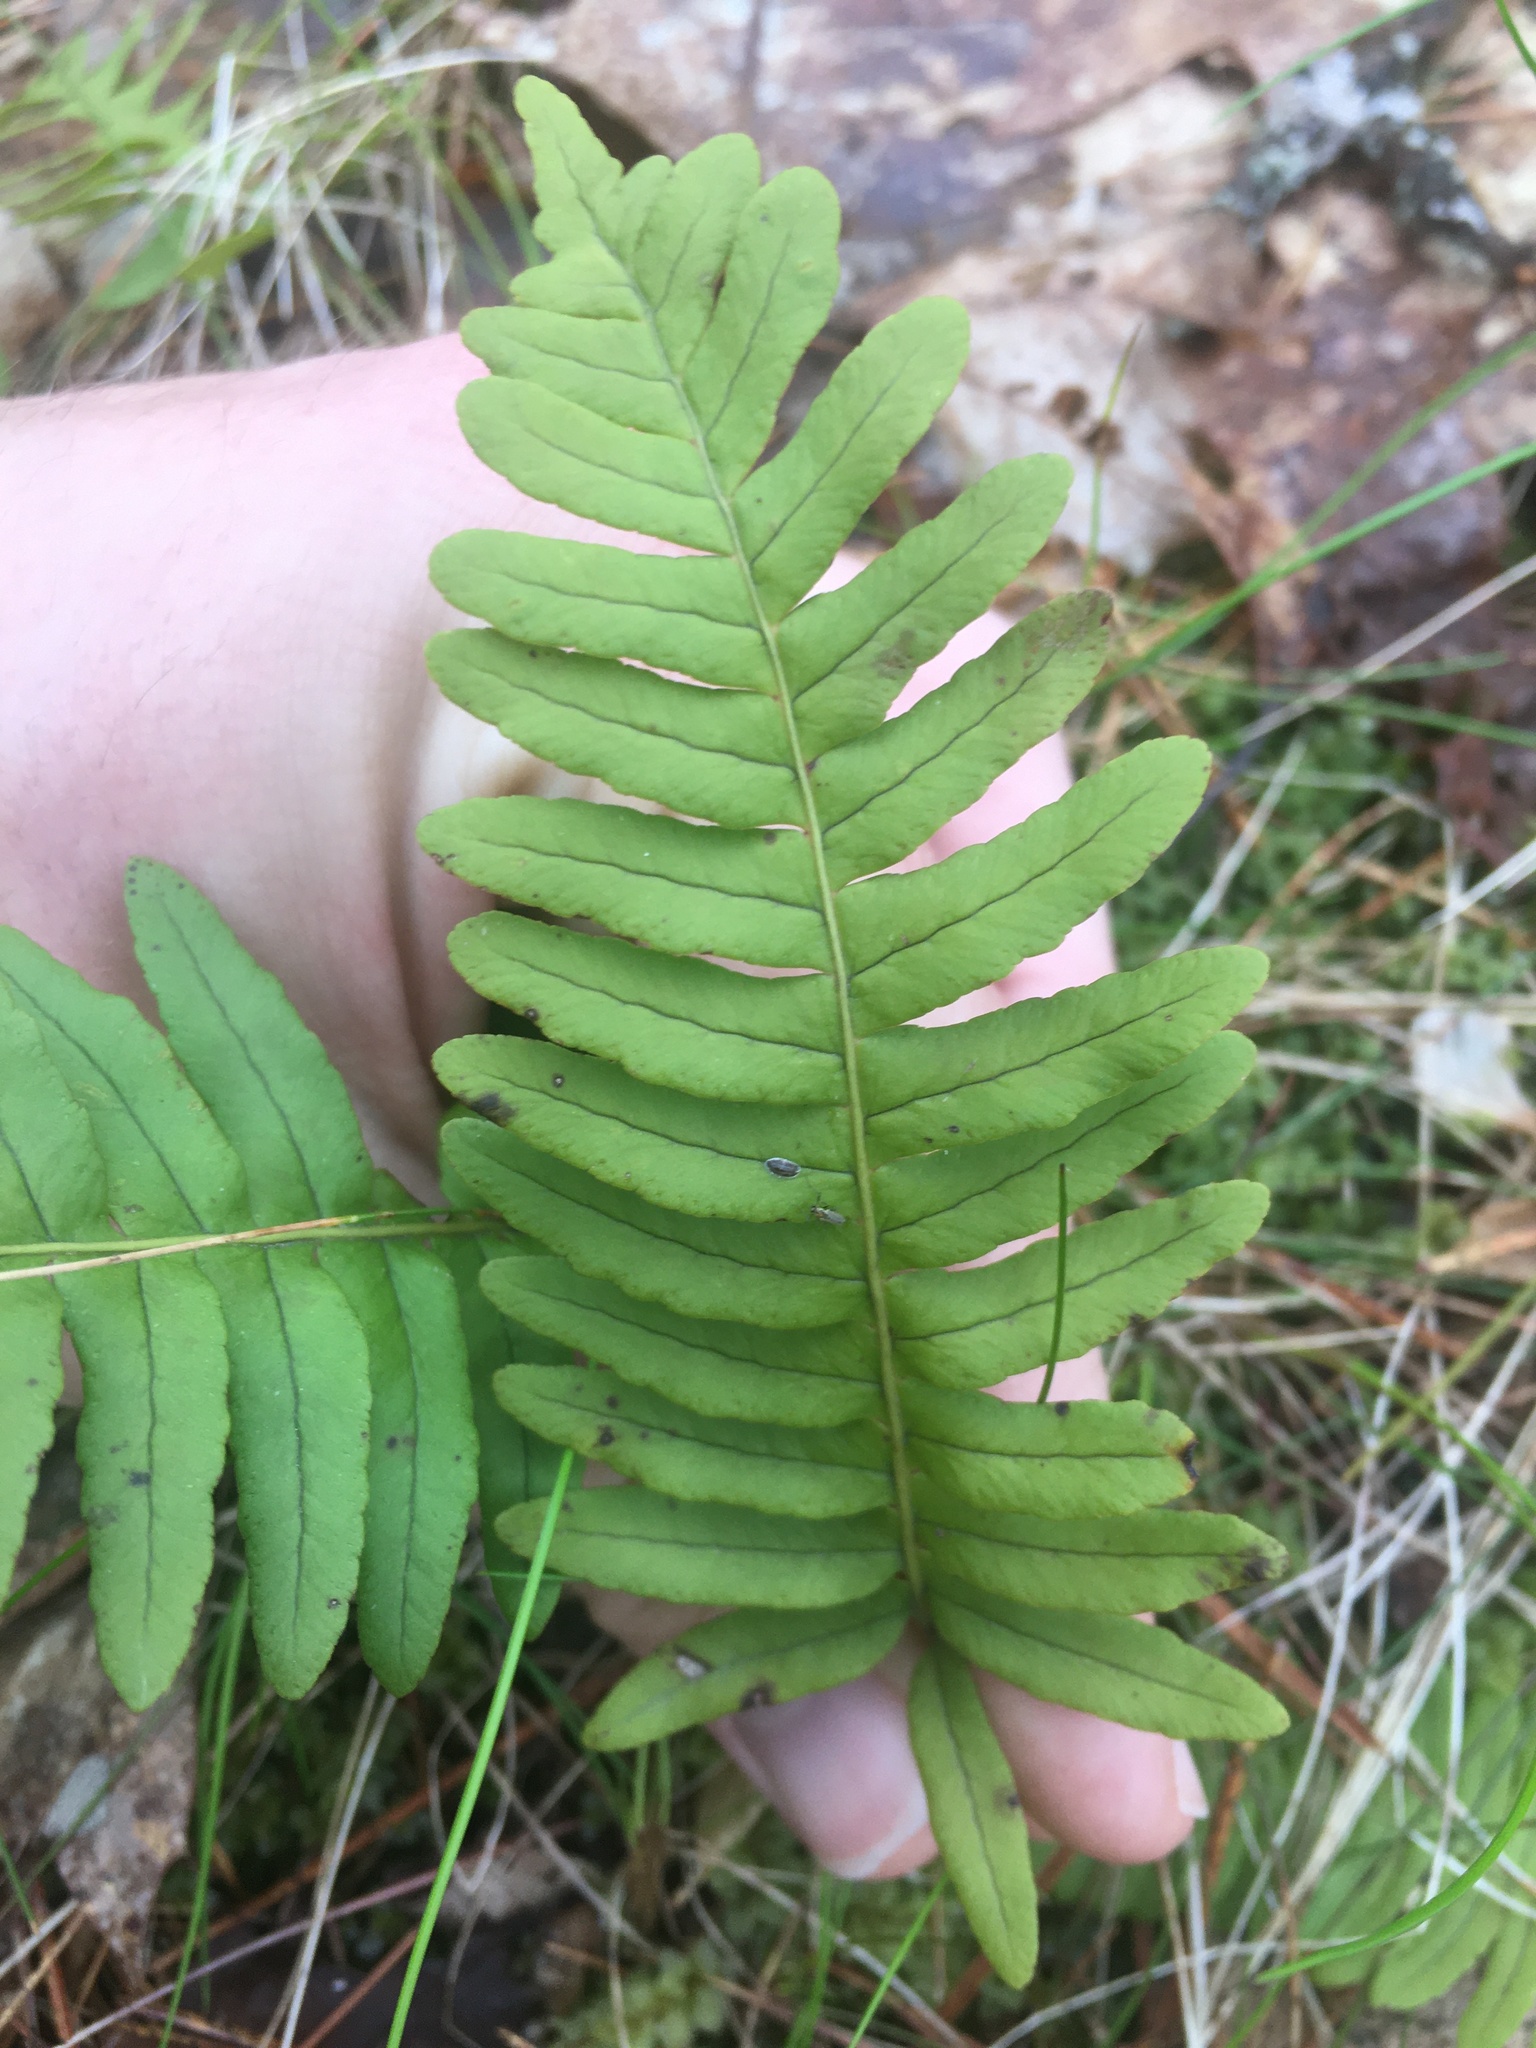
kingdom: Plantae
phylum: Tracheophyta
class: Polypodiopsida
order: Polypodiales
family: Polypodiaceae
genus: Polypodium
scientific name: Polypodium virginianum
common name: American wall fern
